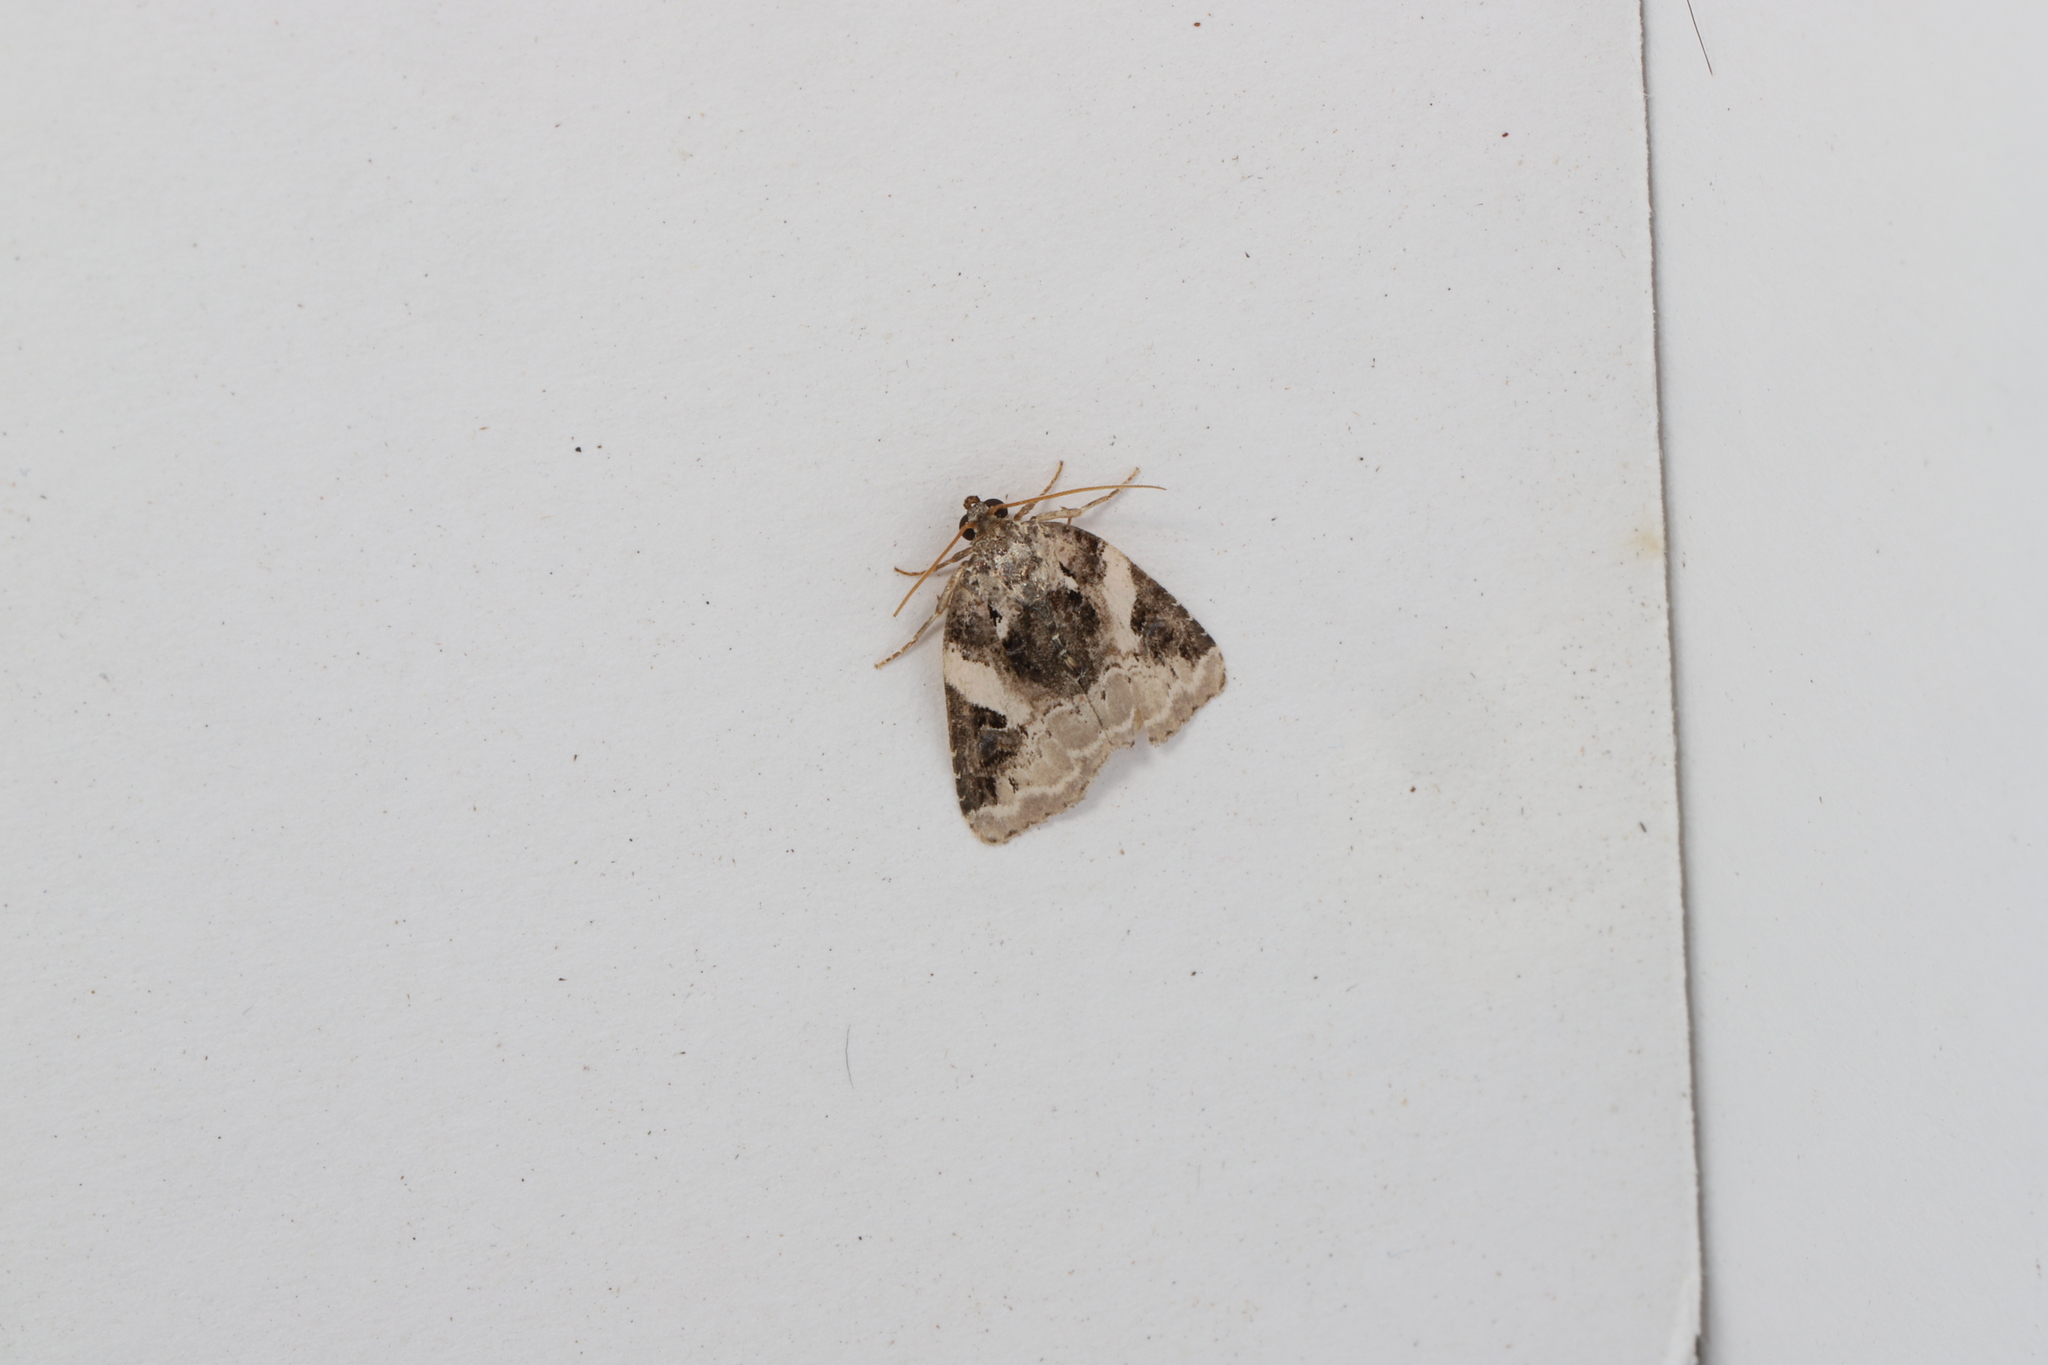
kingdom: Animalia
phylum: Arthropoda
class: Insecta
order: Lepidoptera
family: Noctuidae
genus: Pseudeustrotia
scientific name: Pseudeustrotia carneola
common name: Pink-barred lithacodia moth
